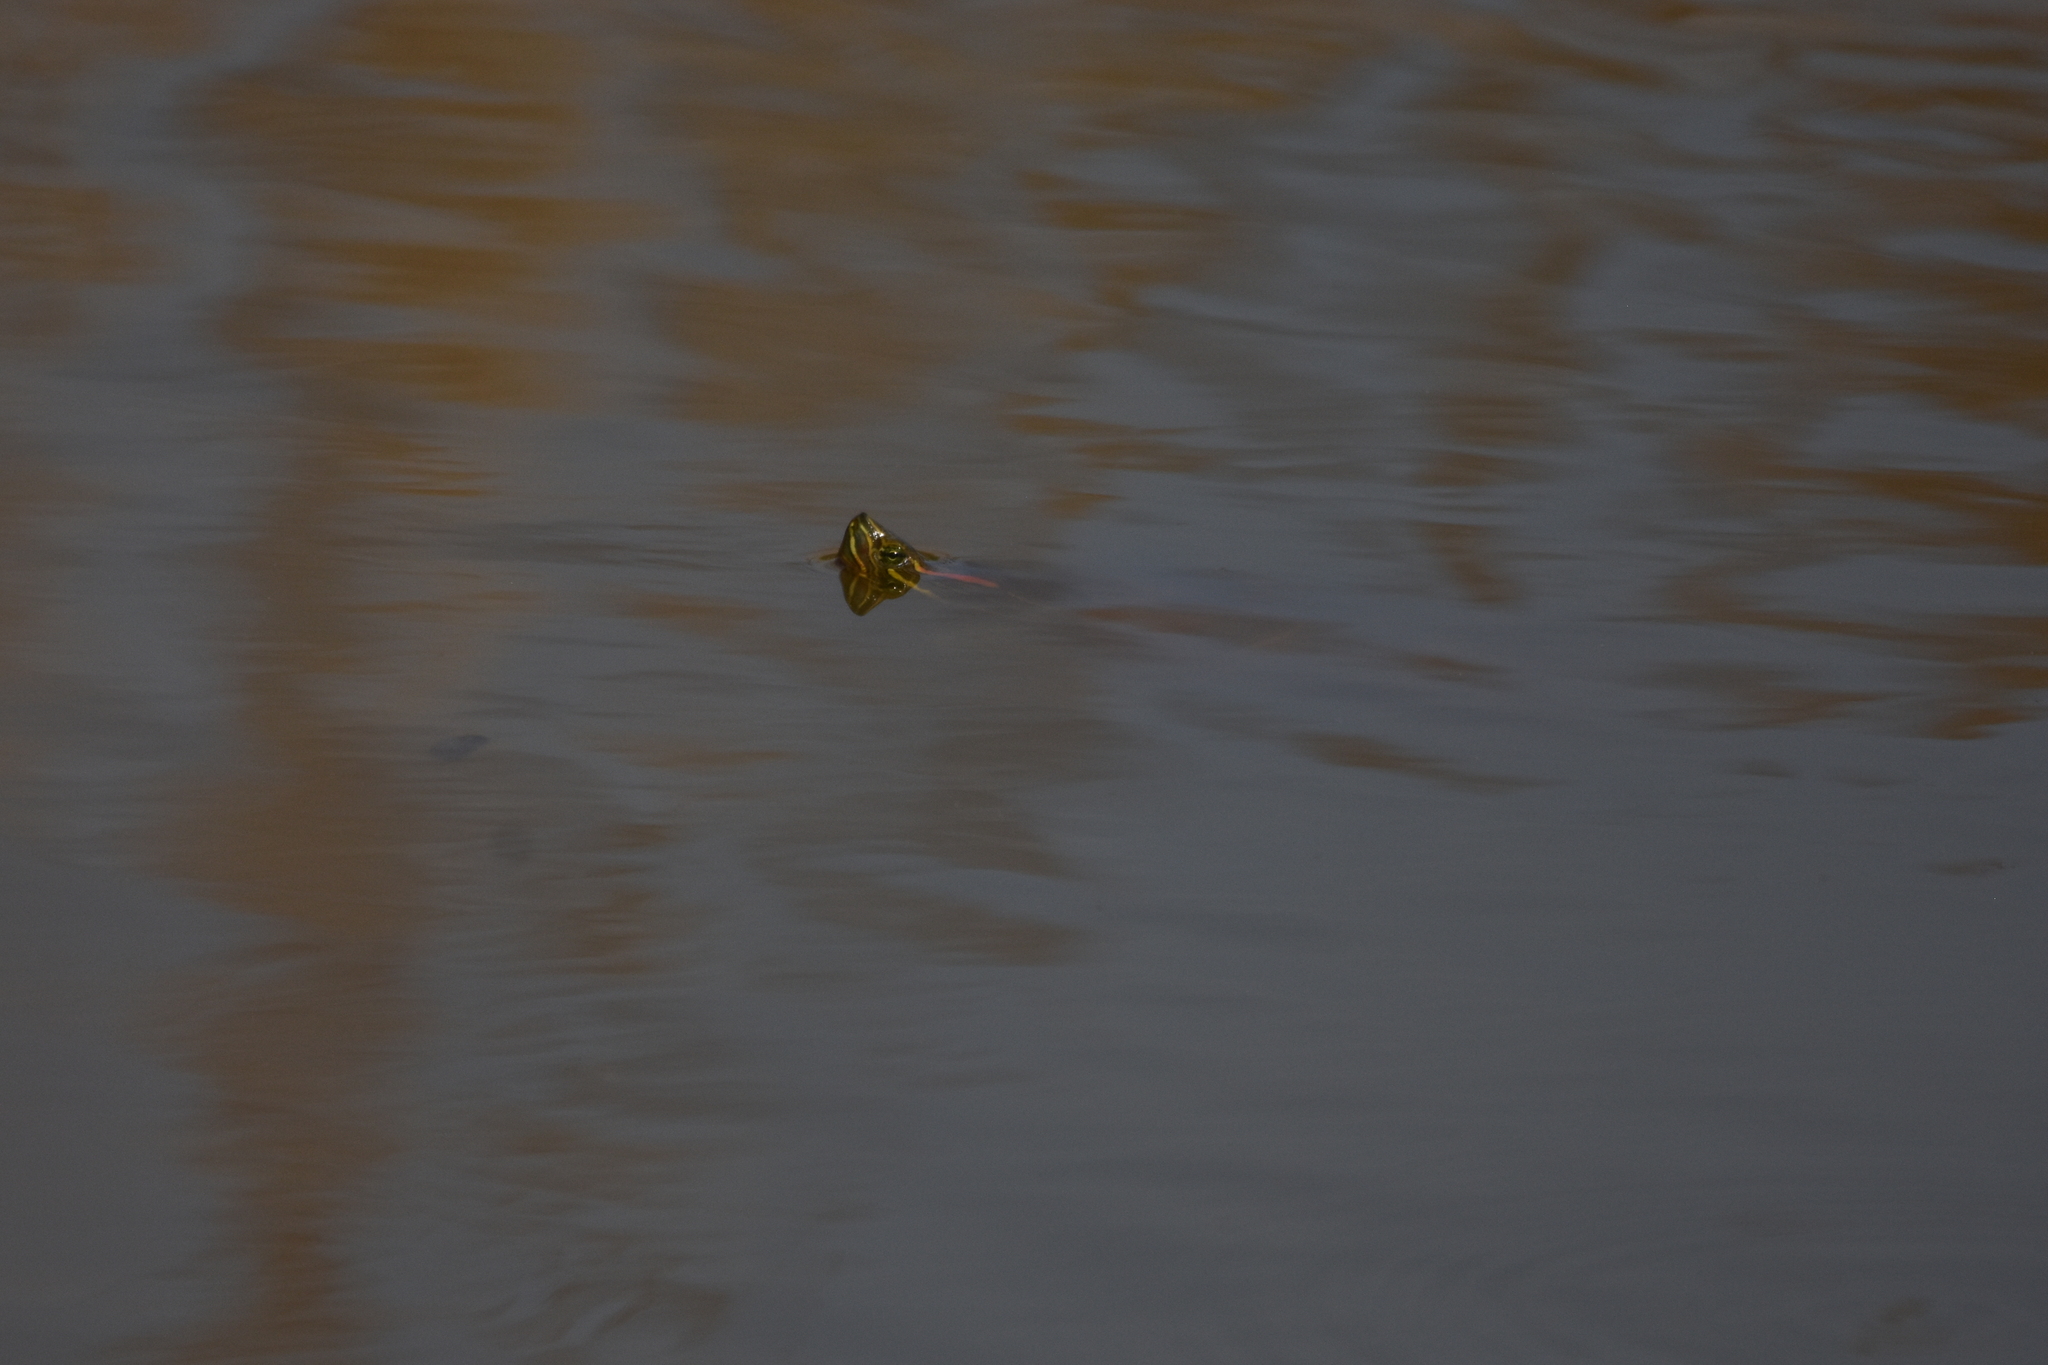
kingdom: Animalia
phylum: Chordata
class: Testudines
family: Emydidae
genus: Trachemys
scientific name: Trachemys scripta
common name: Slider
